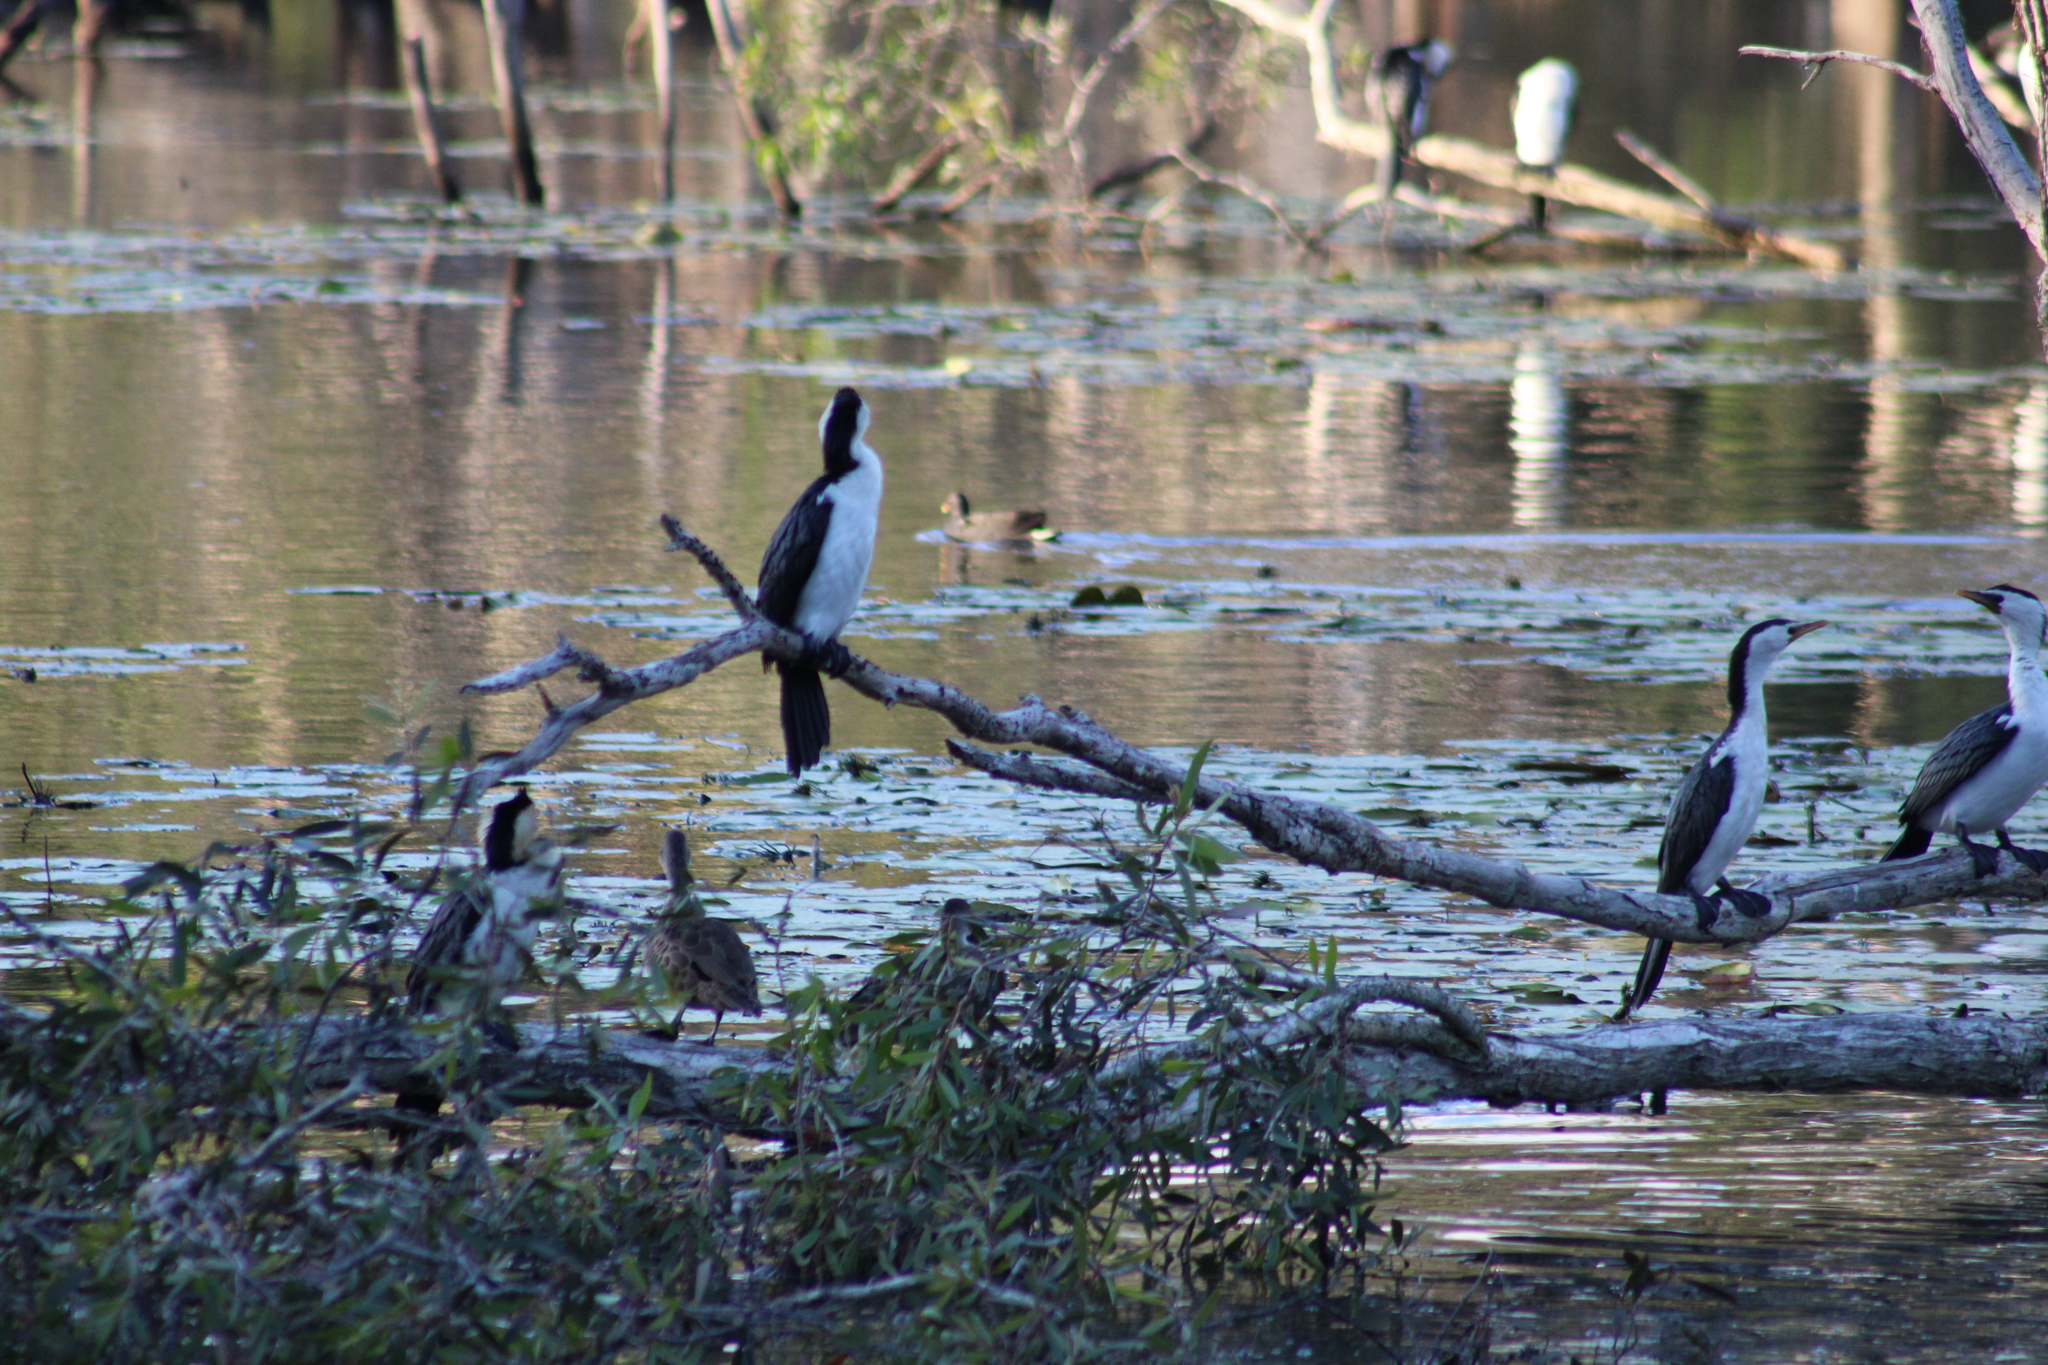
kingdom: Animalia
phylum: Chordata
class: Aves
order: Suliformes
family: Phalacrocoracidae
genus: Microcarbo
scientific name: Microcarbo melanoleucos
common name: Little pied cormorant
